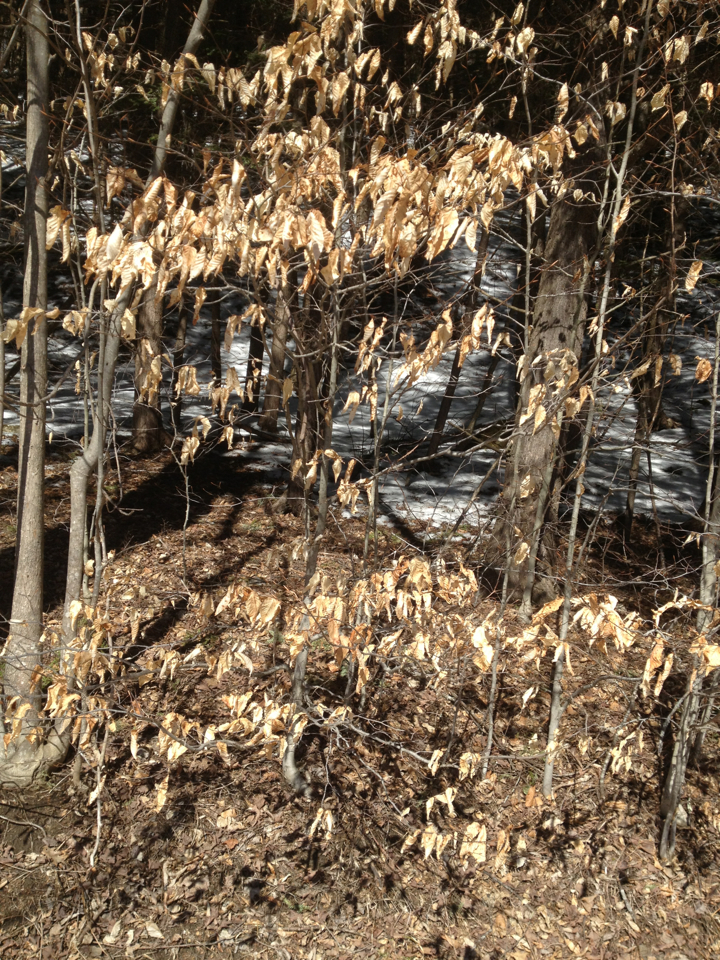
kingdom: Plantae
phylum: Tracheophyta
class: Magnoliopsida
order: Fagales
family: Fagaceae
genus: Fagus
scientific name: Fagus grandifolia
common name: American beech
